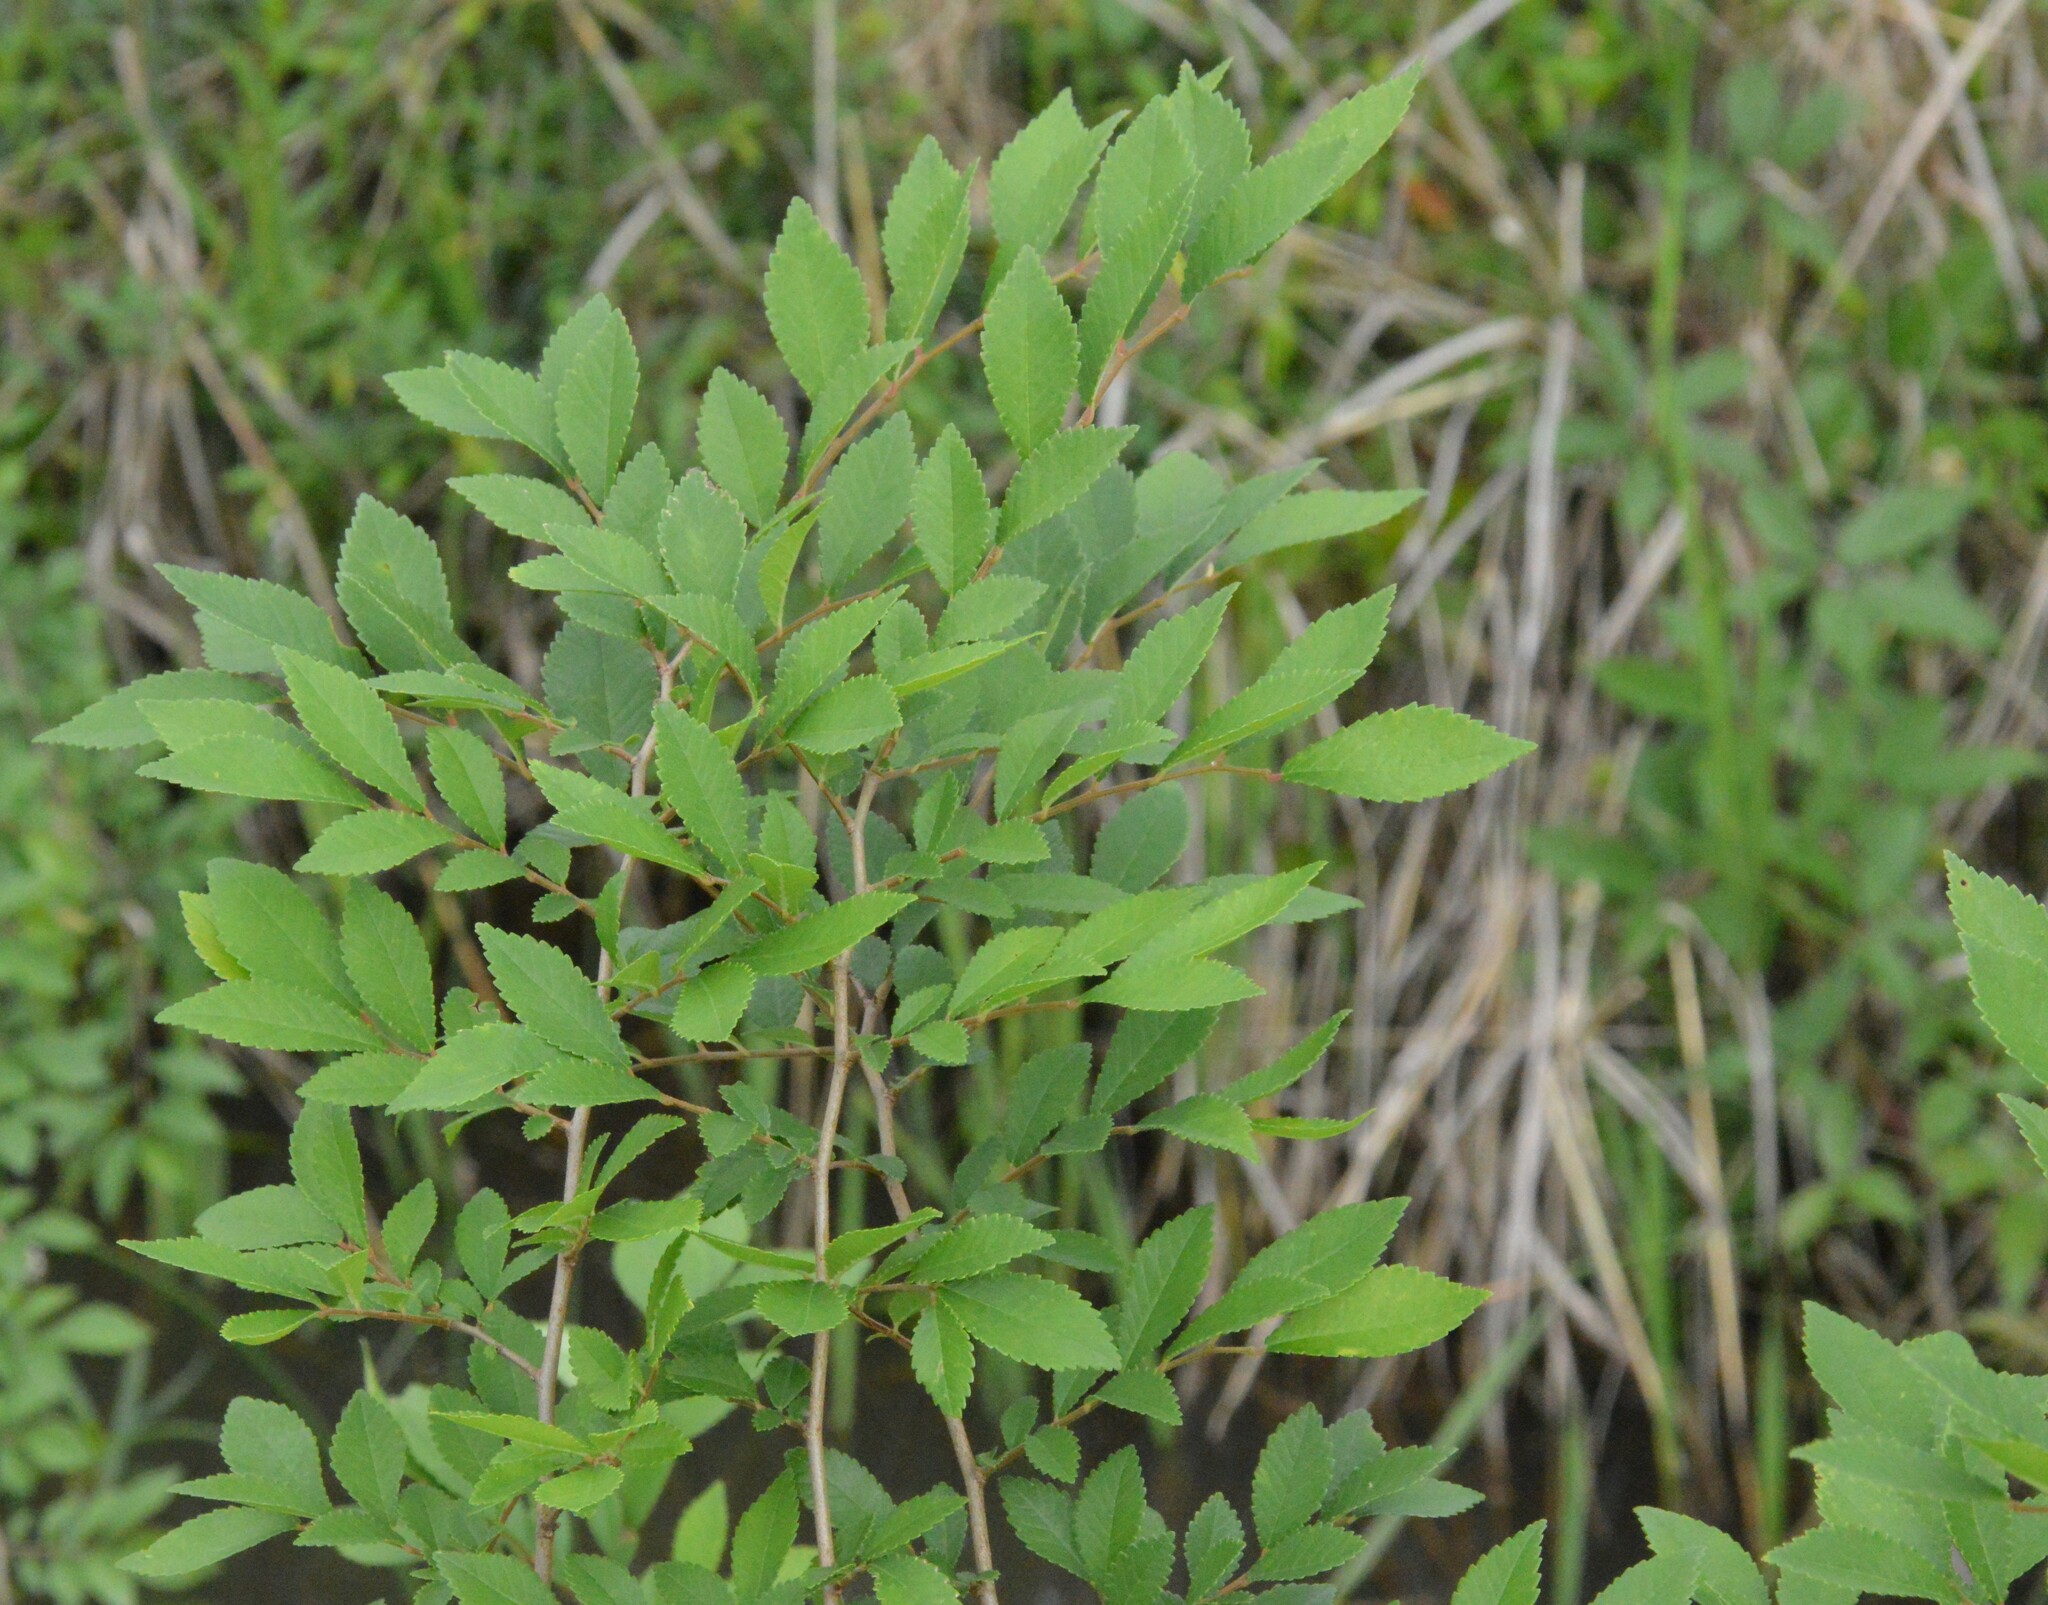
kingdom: Plantae
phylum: Tracheophyta
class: Magnoliopsida
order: Rosales
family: Ulmaceae
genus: Ulmus
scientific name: Ulmus parvifolia
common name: Chinese elm
